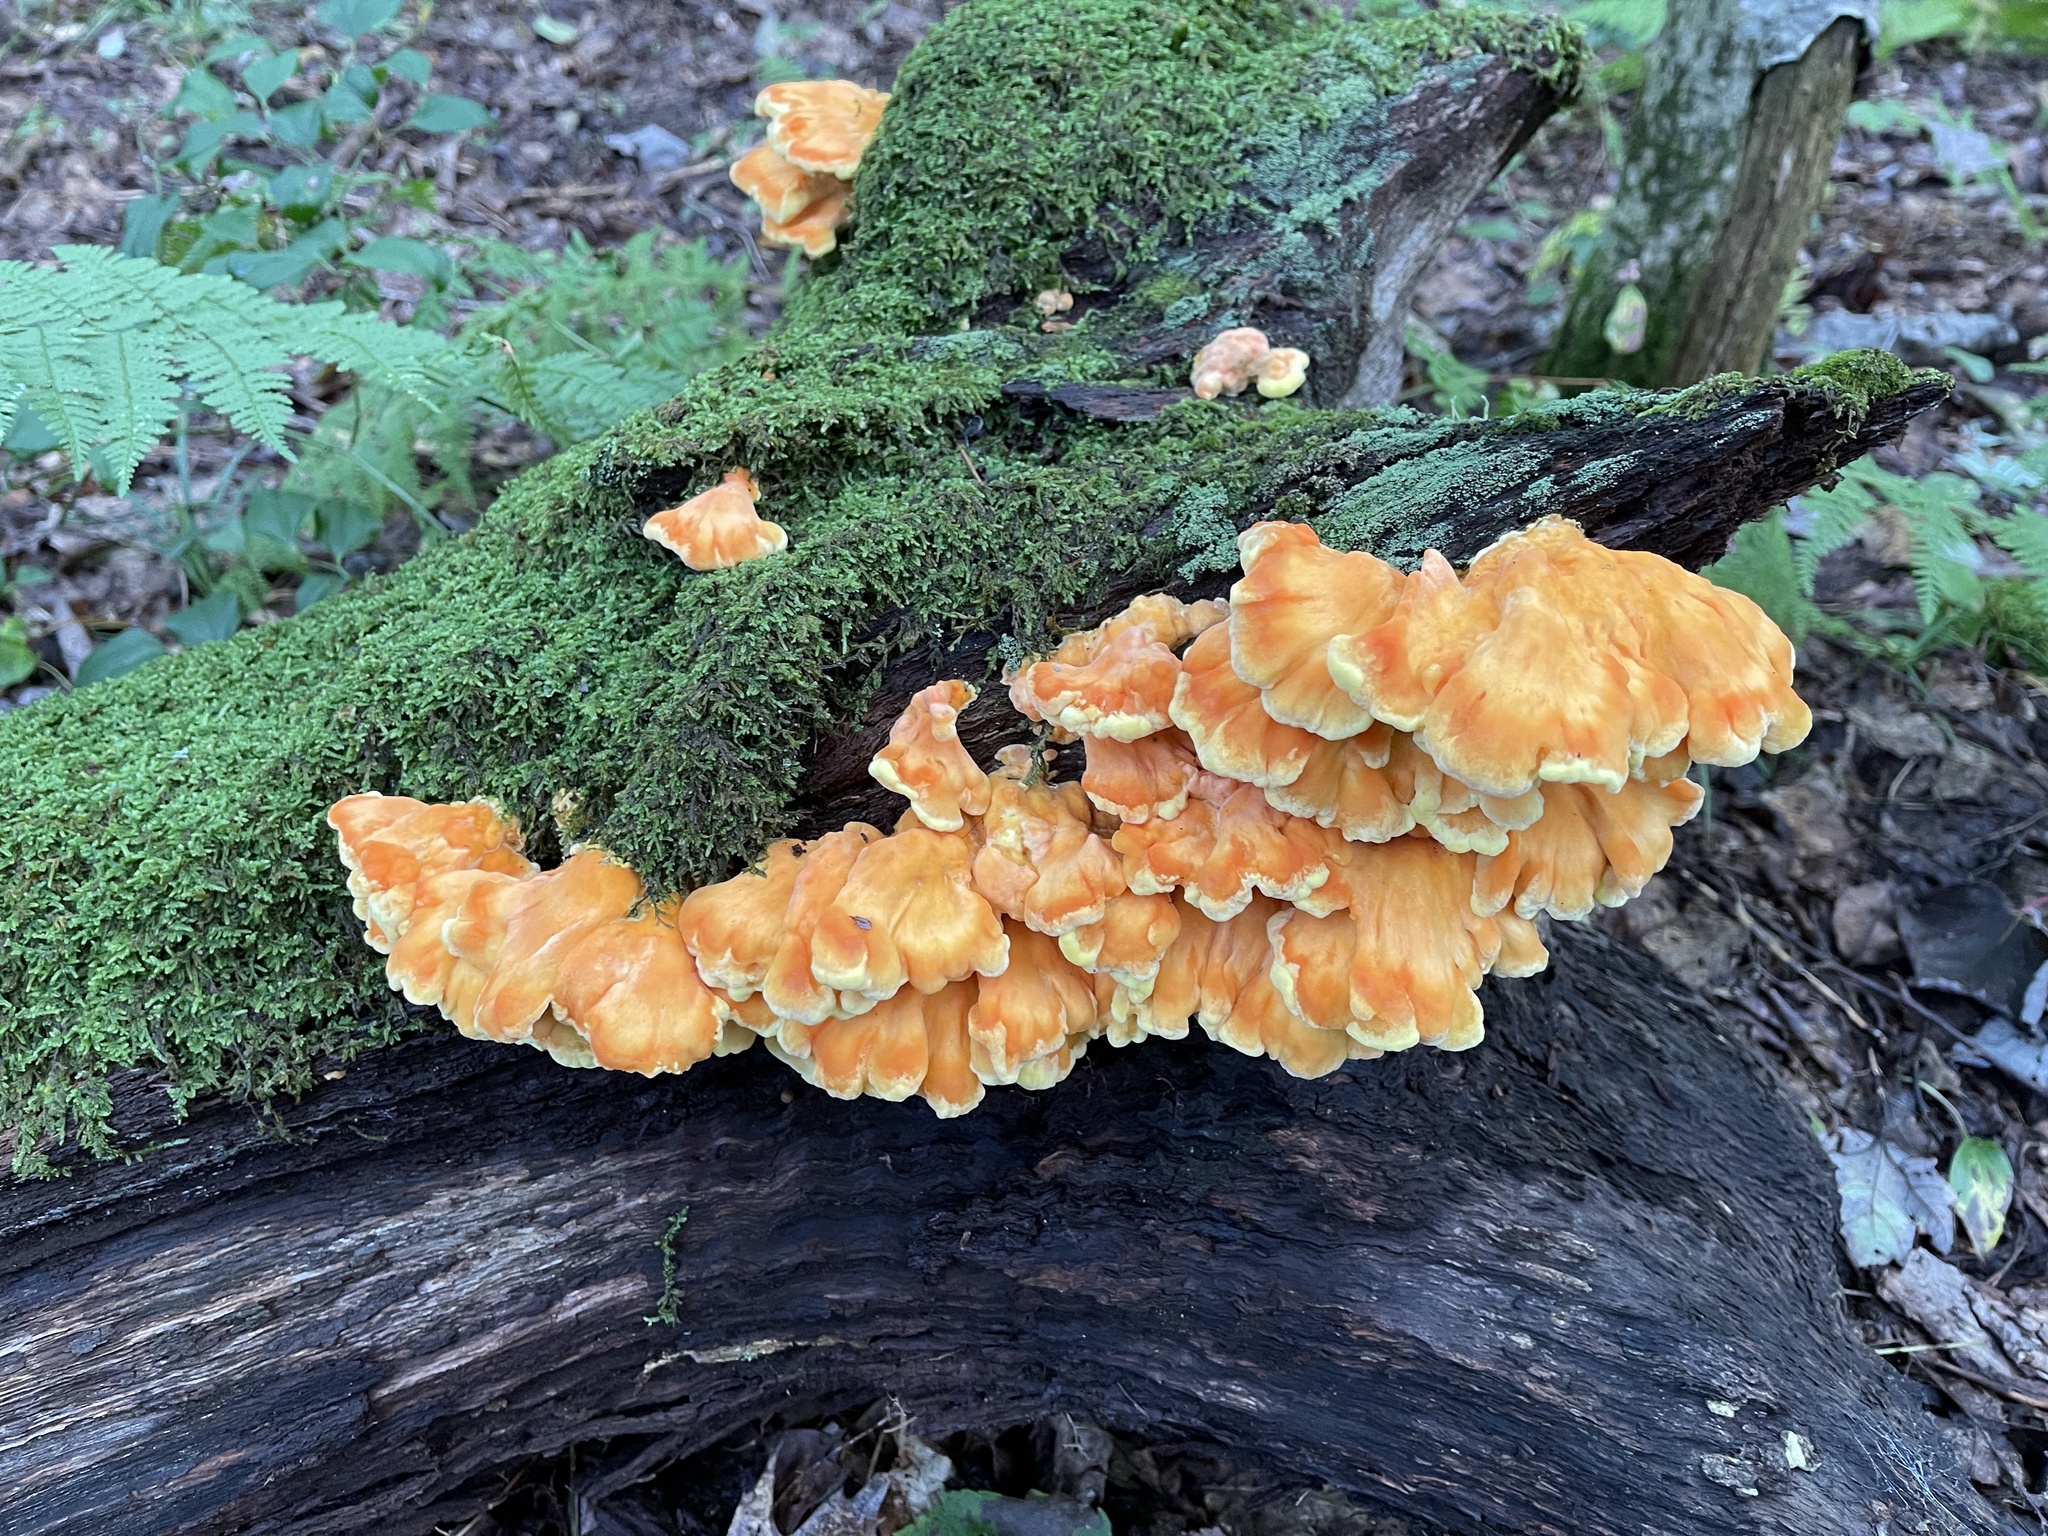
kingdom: Fungi
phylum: Basidiomycota
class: Agaricomycetes
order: Polyporales
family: Laetiporaceae
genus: Laetiporus
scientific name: Laetiporus sulphureus
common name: Chicken of the woods
